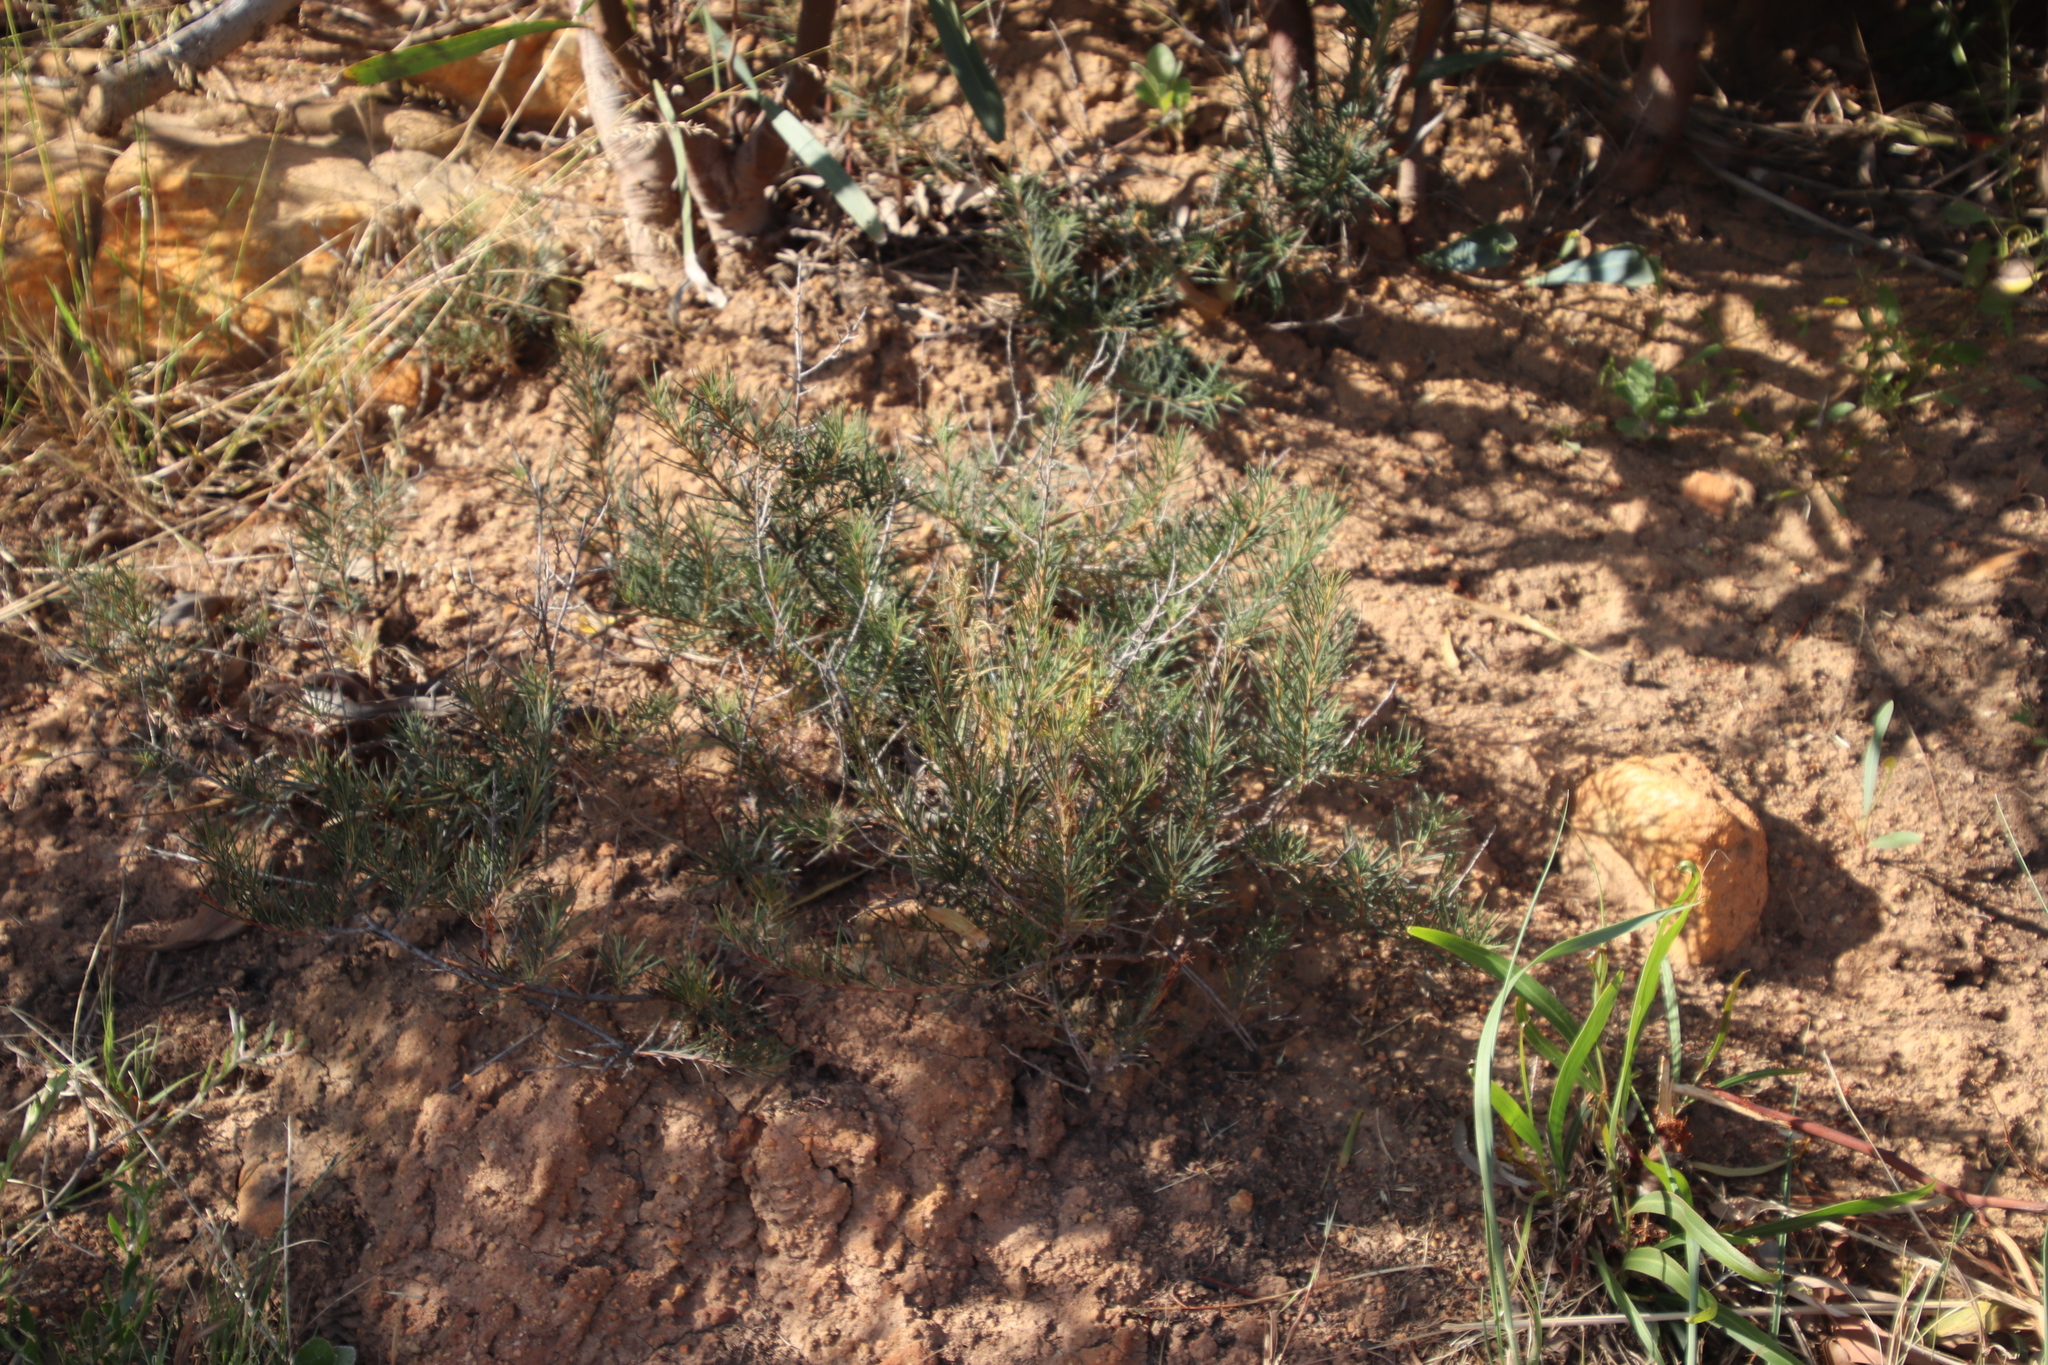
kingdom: Plantae
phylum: Tracheophyta
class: Magnoliopsida
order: Sapindales
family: Anacardiaceae
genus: Searsia
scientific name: Searsia rosmarinifolia
